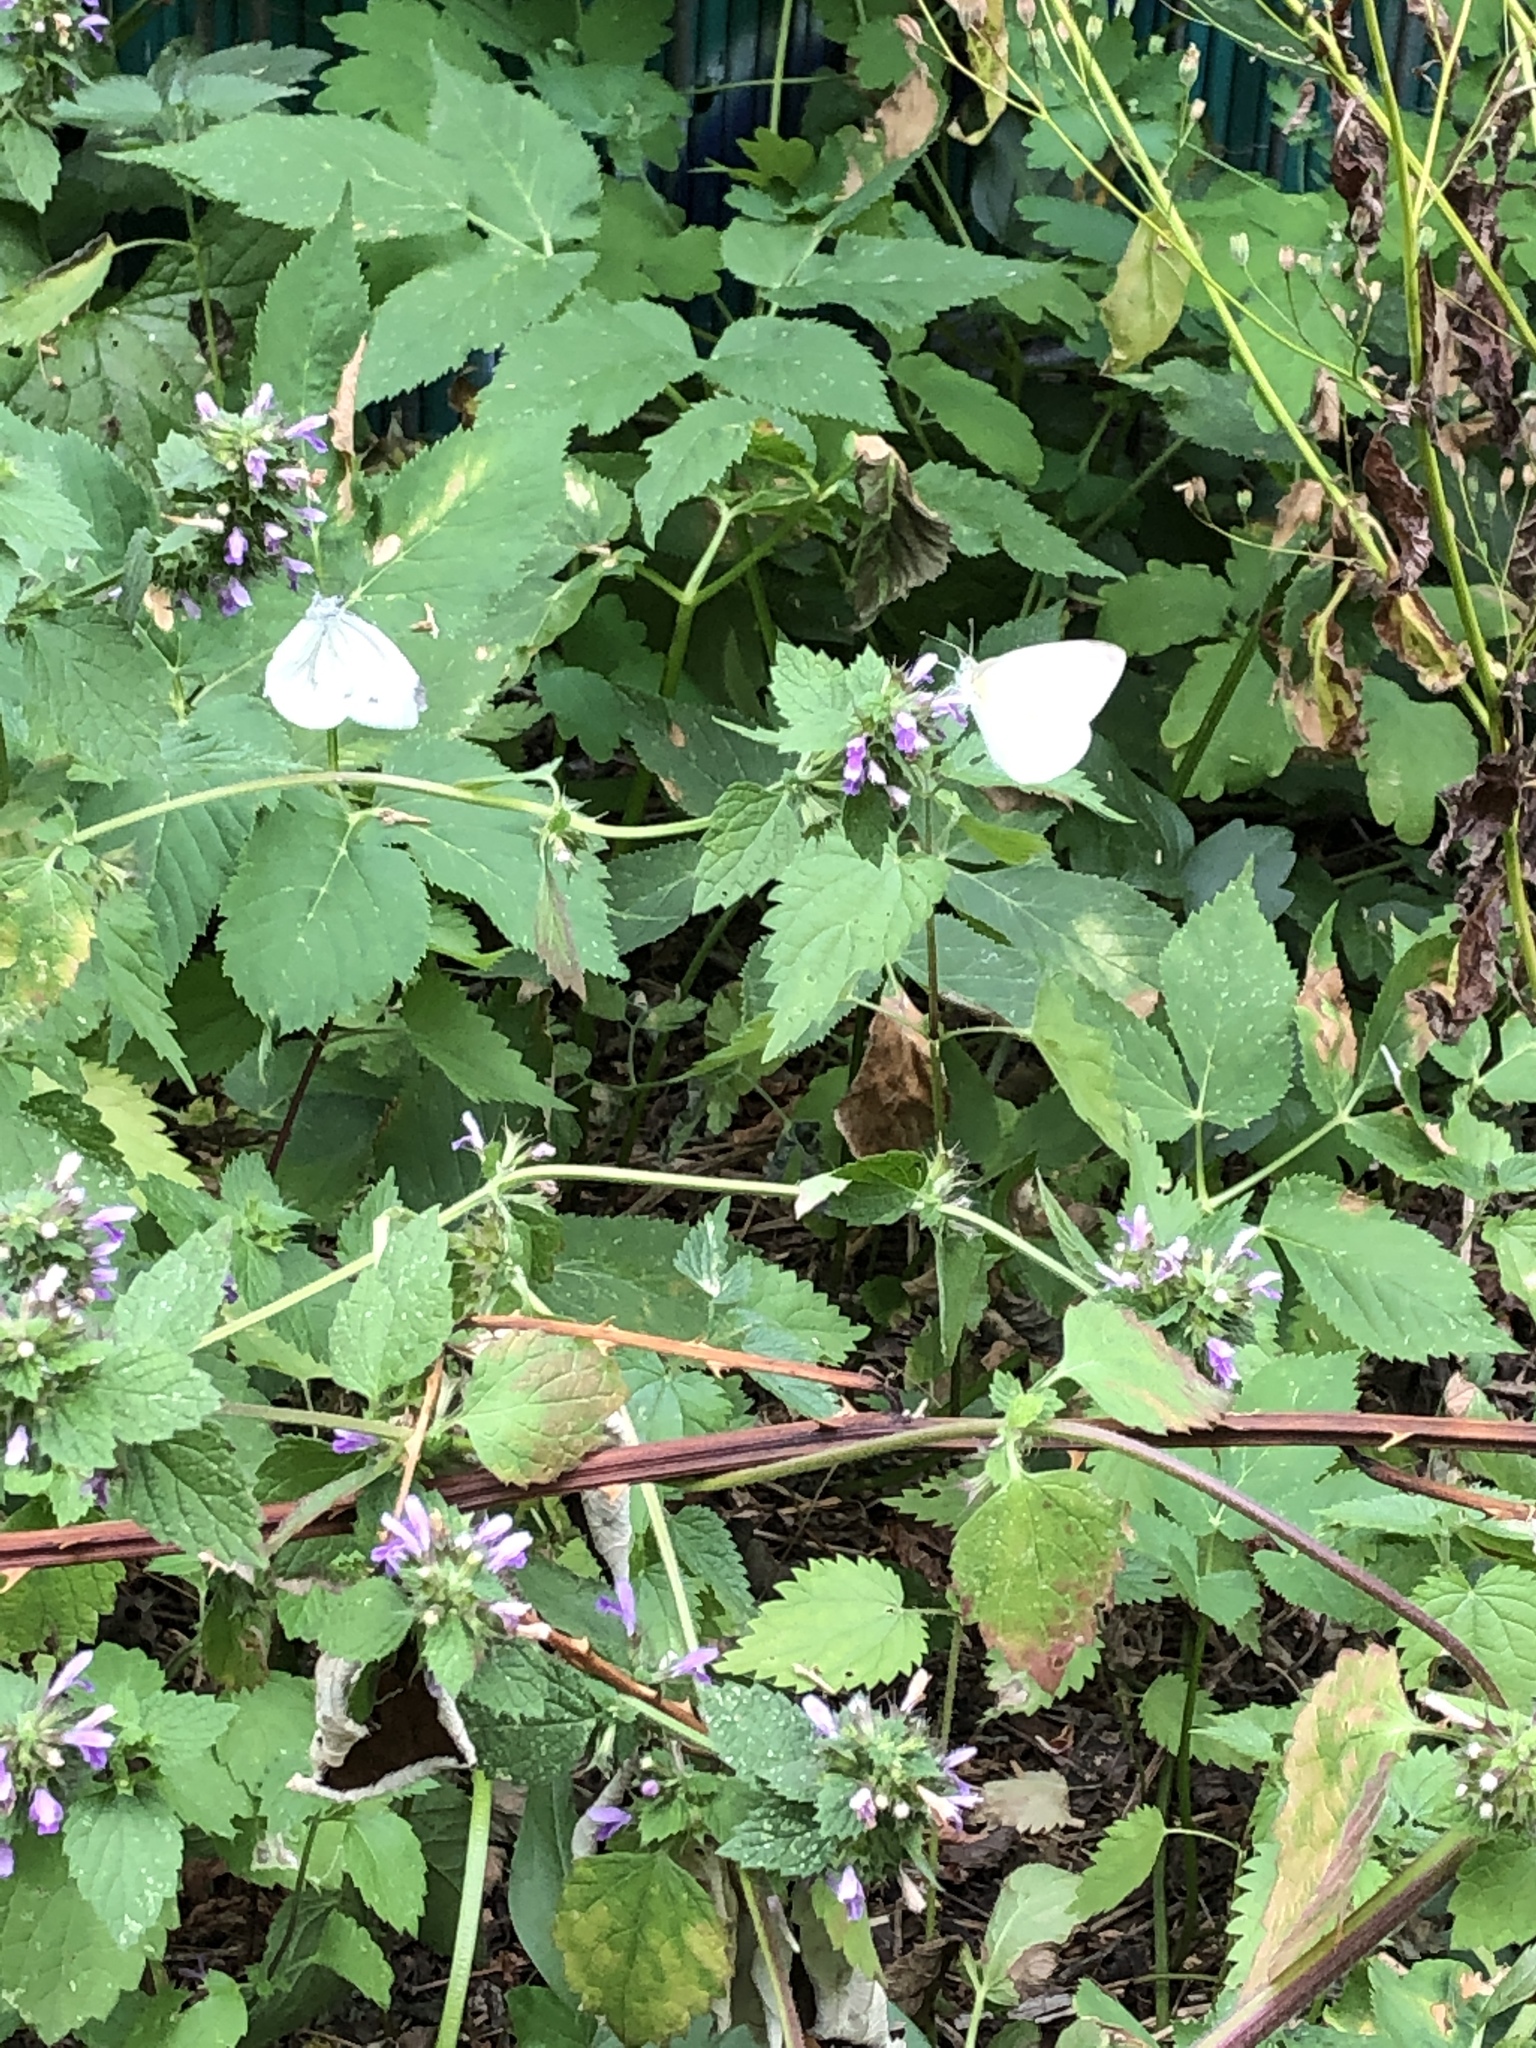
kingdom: Animalia
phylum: Arthropoda
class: Insecta
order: Lepidoptera
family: Pieridae
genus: Pieris
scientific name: Pieris napi
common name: Green-veined white
